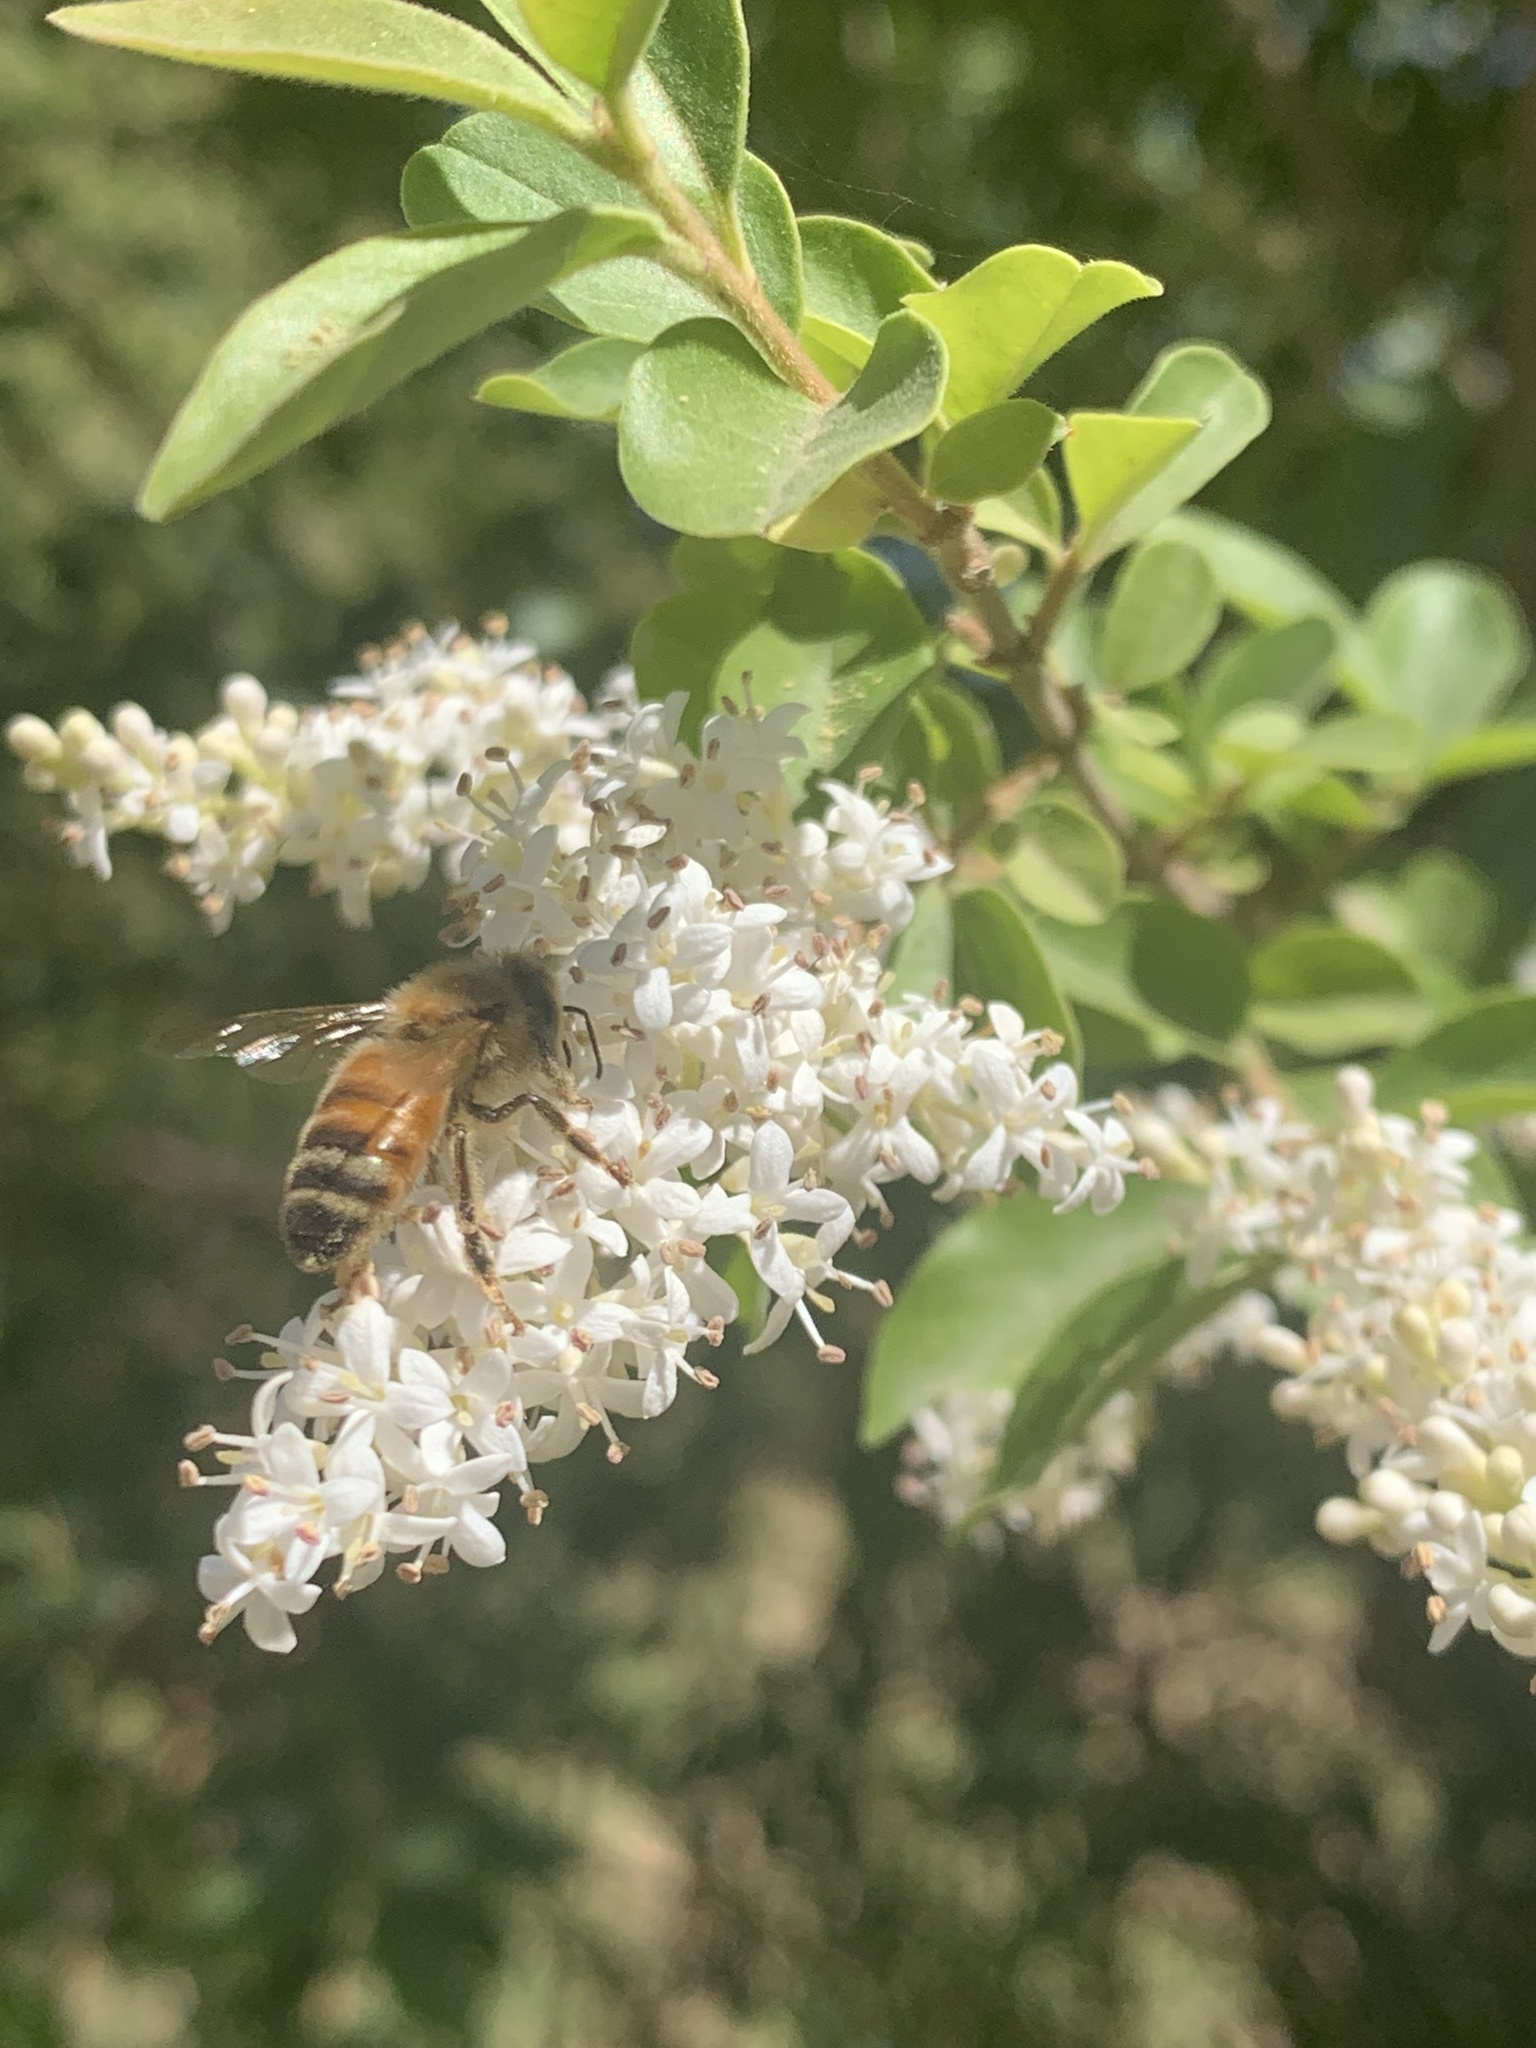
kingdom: Animalia
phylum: Arthropoda
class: Insecta
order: Hymenoptera
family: Apidae
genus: Apis
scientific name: Apis mellifera
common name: Honey bee
